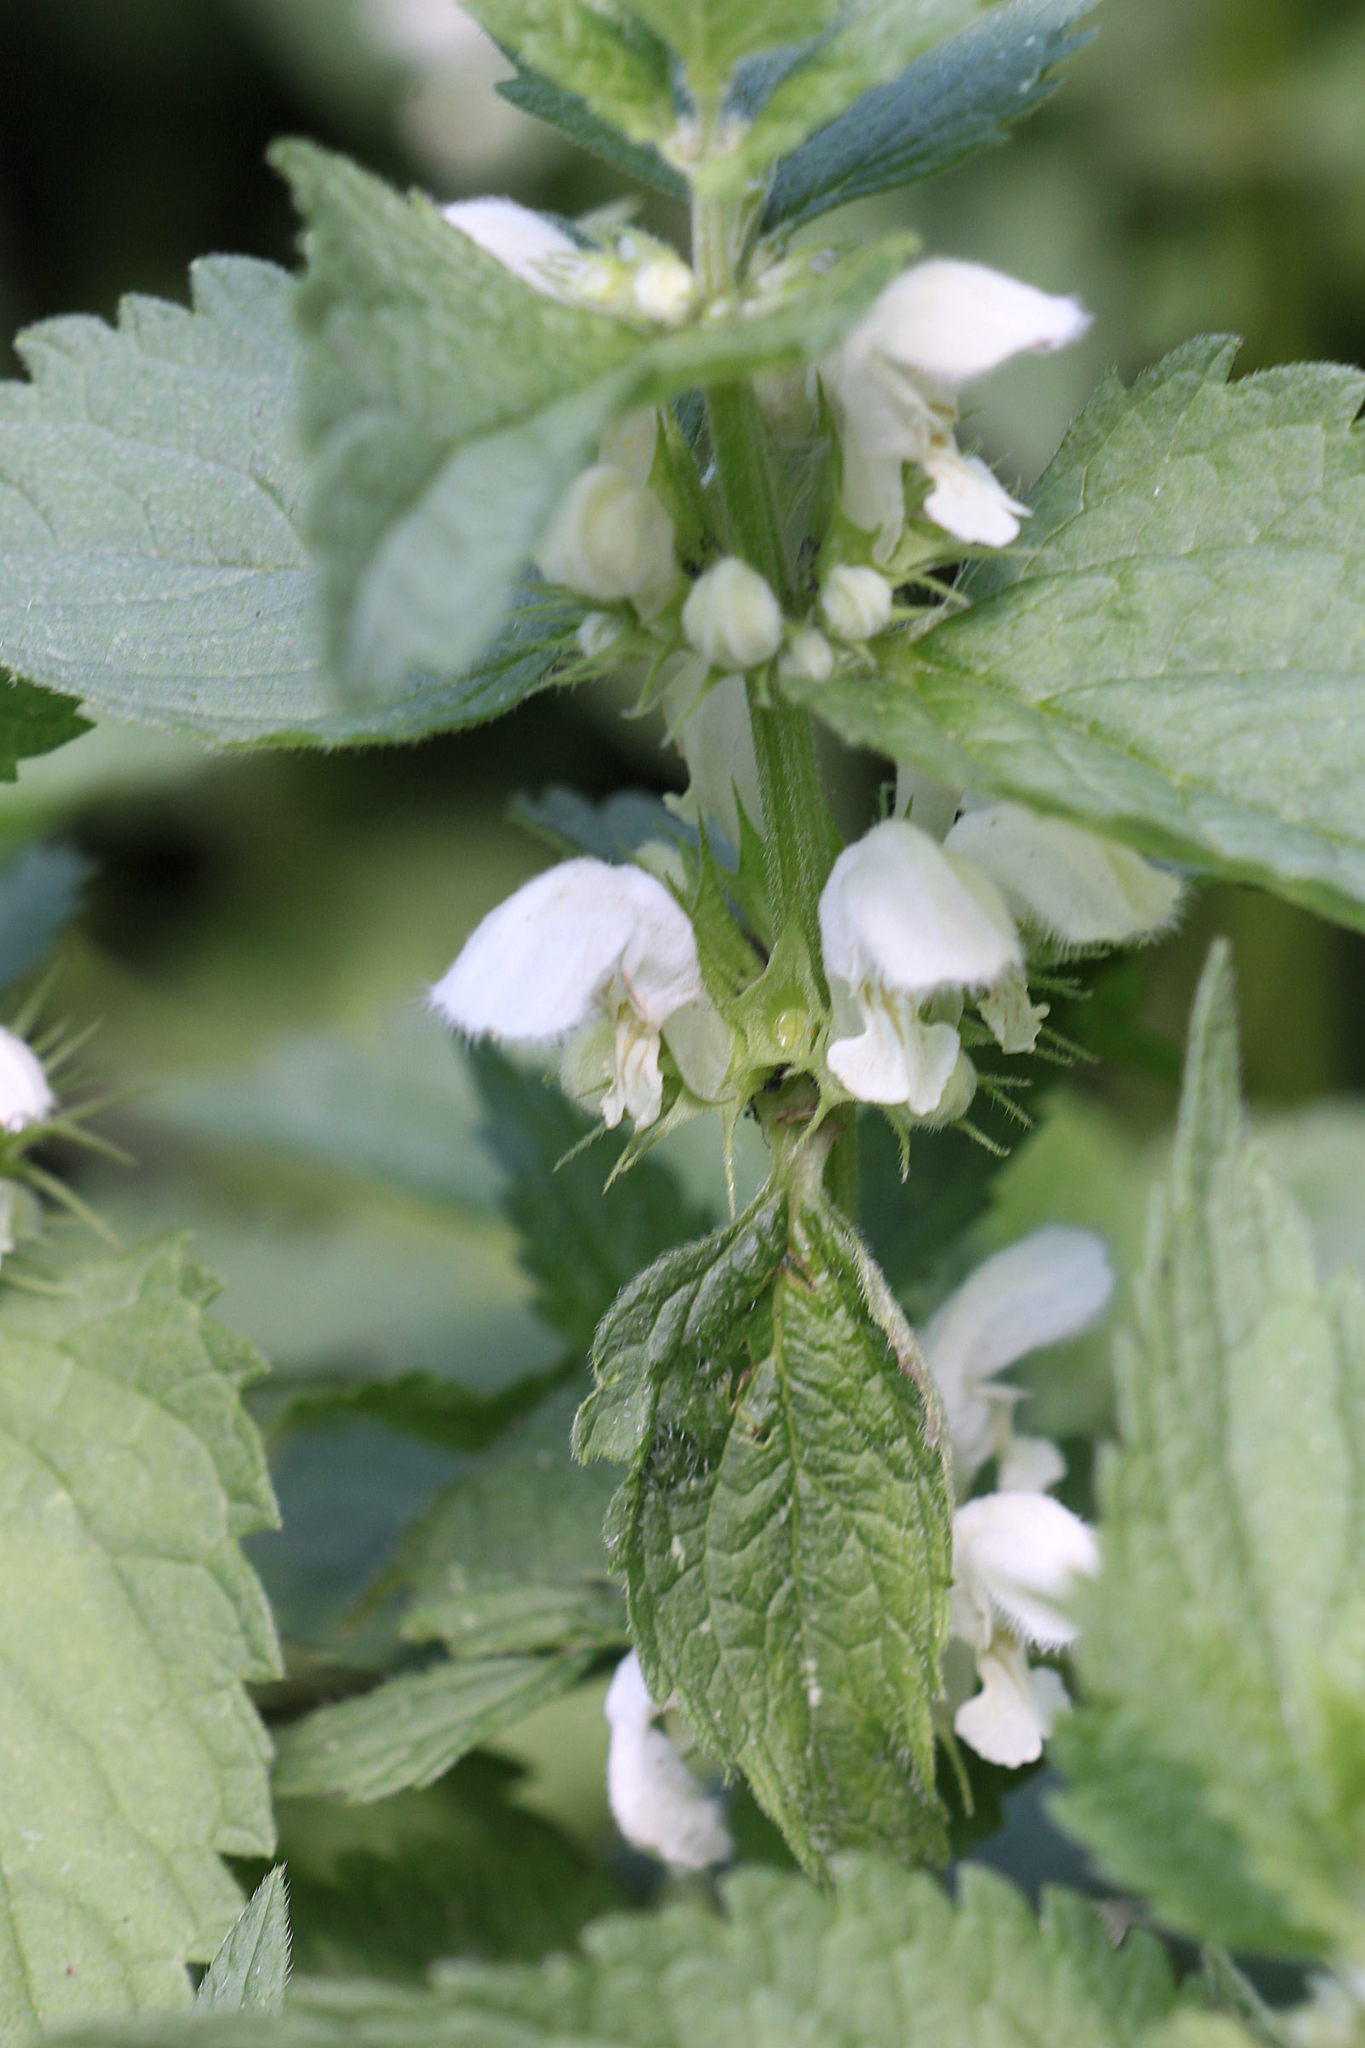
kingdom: Plantae
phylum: Tracheophyta
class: Magnoliopsida
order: Lamiales
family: Lamiaceae
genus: Lamium
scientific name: Lamium album
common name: White dead-nettle
